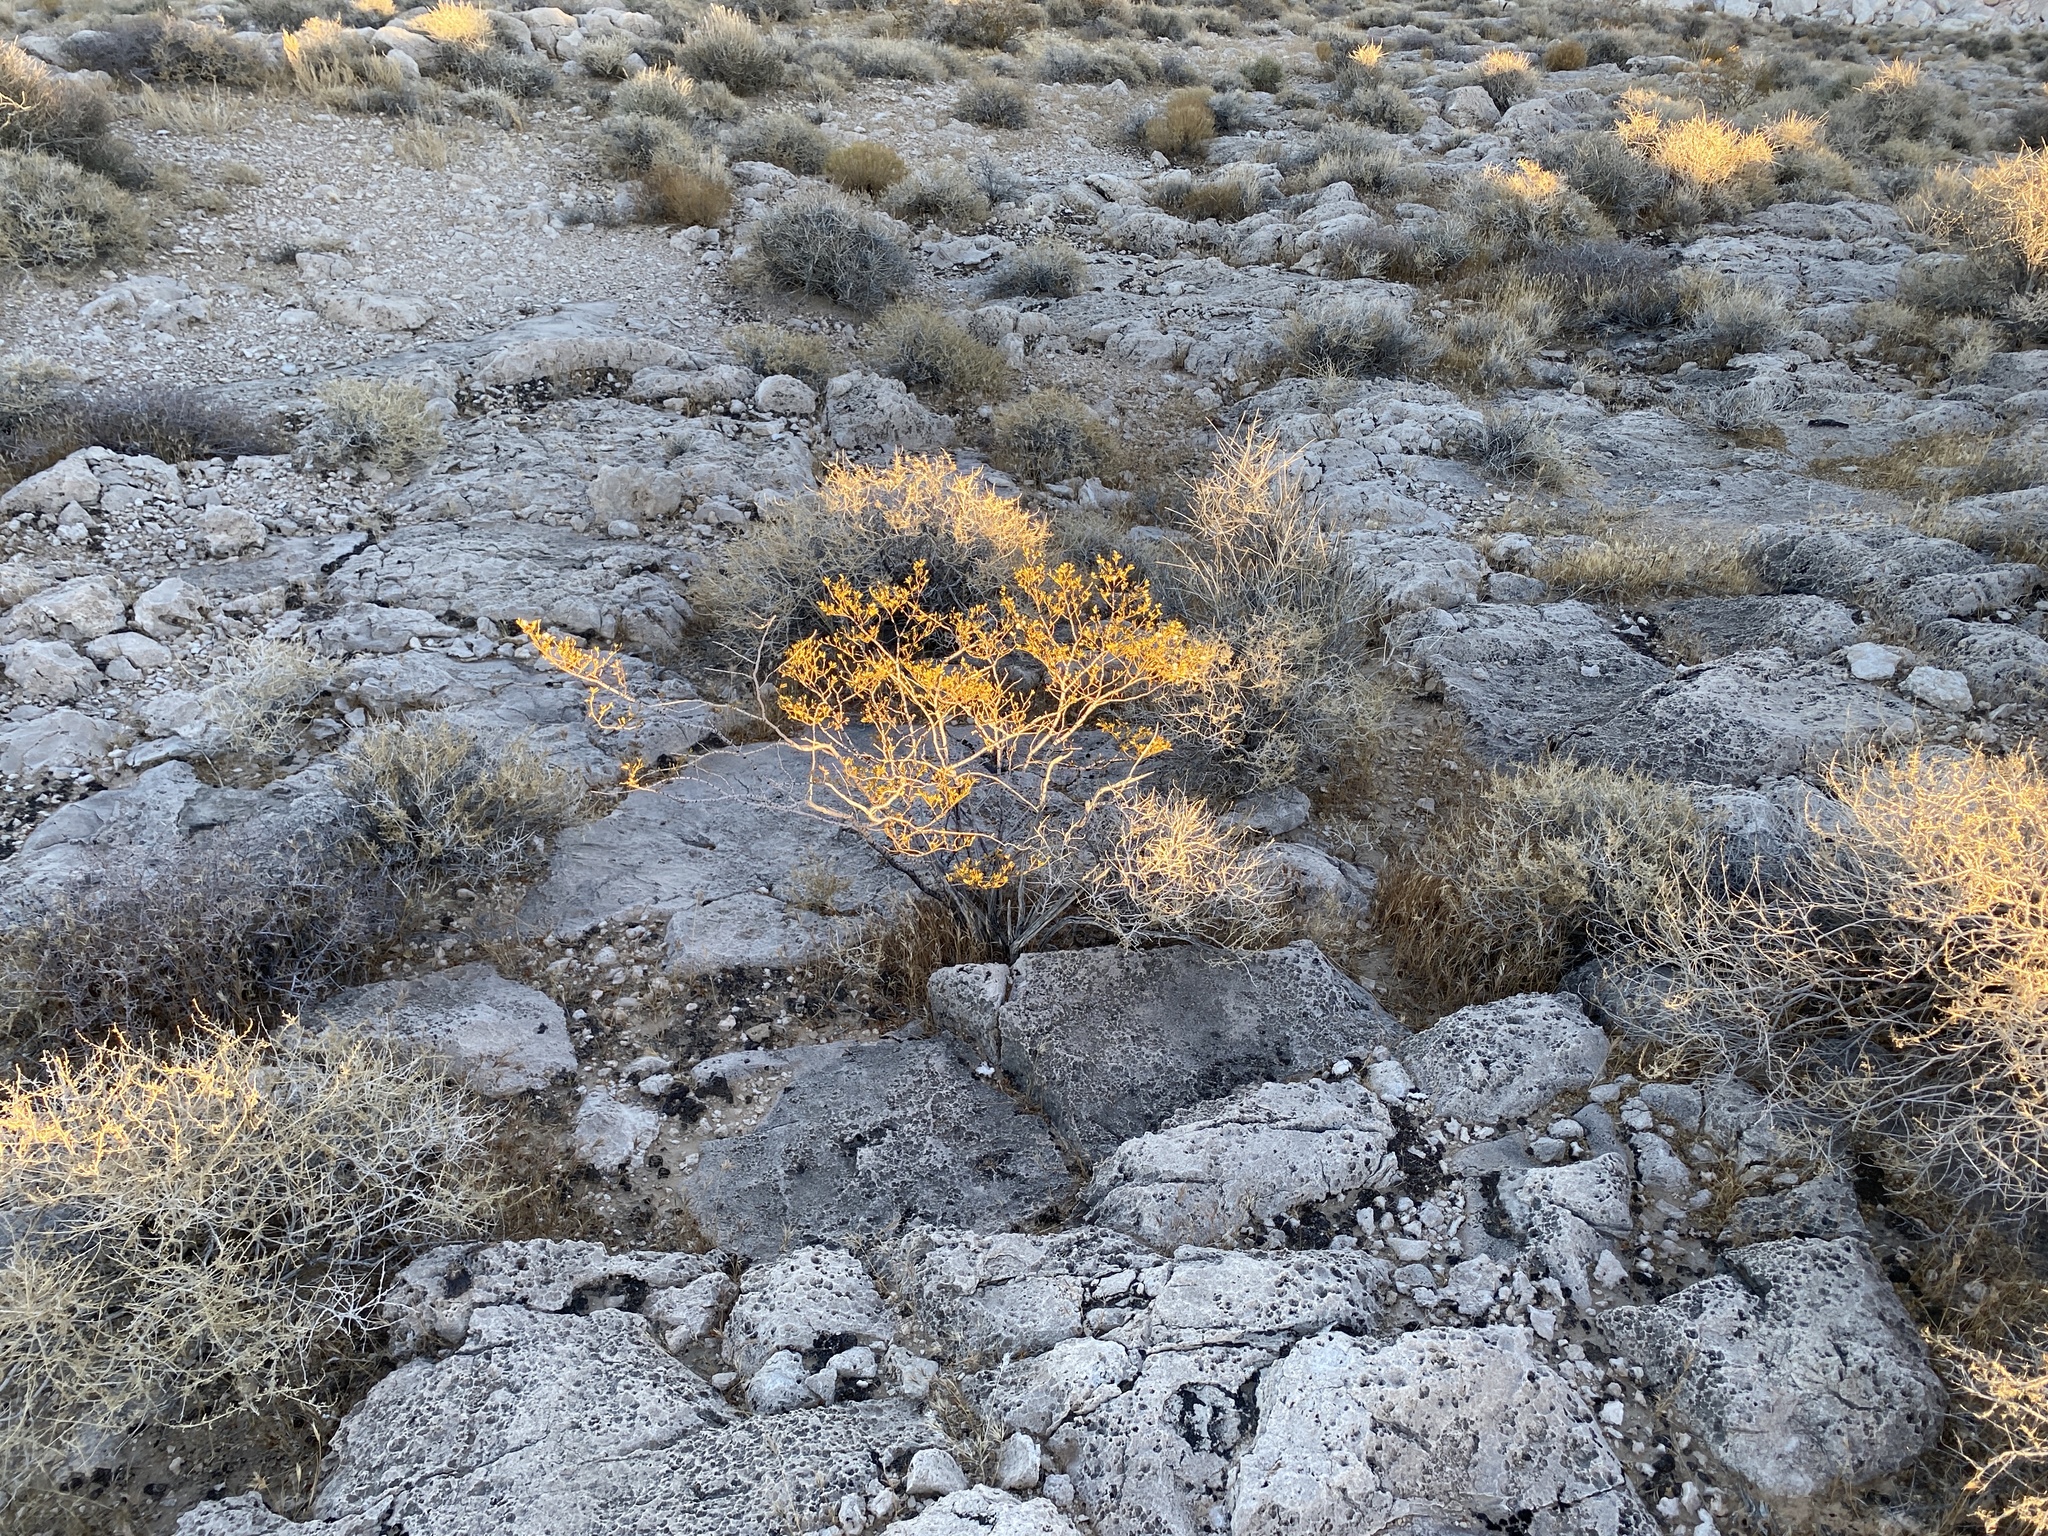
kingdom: Plantae
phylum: Tracheophyta
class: Magnoliopsida
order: Zygophyllales
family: Zygophyllaceae
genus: Larrea
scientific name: Larrea tridentata
